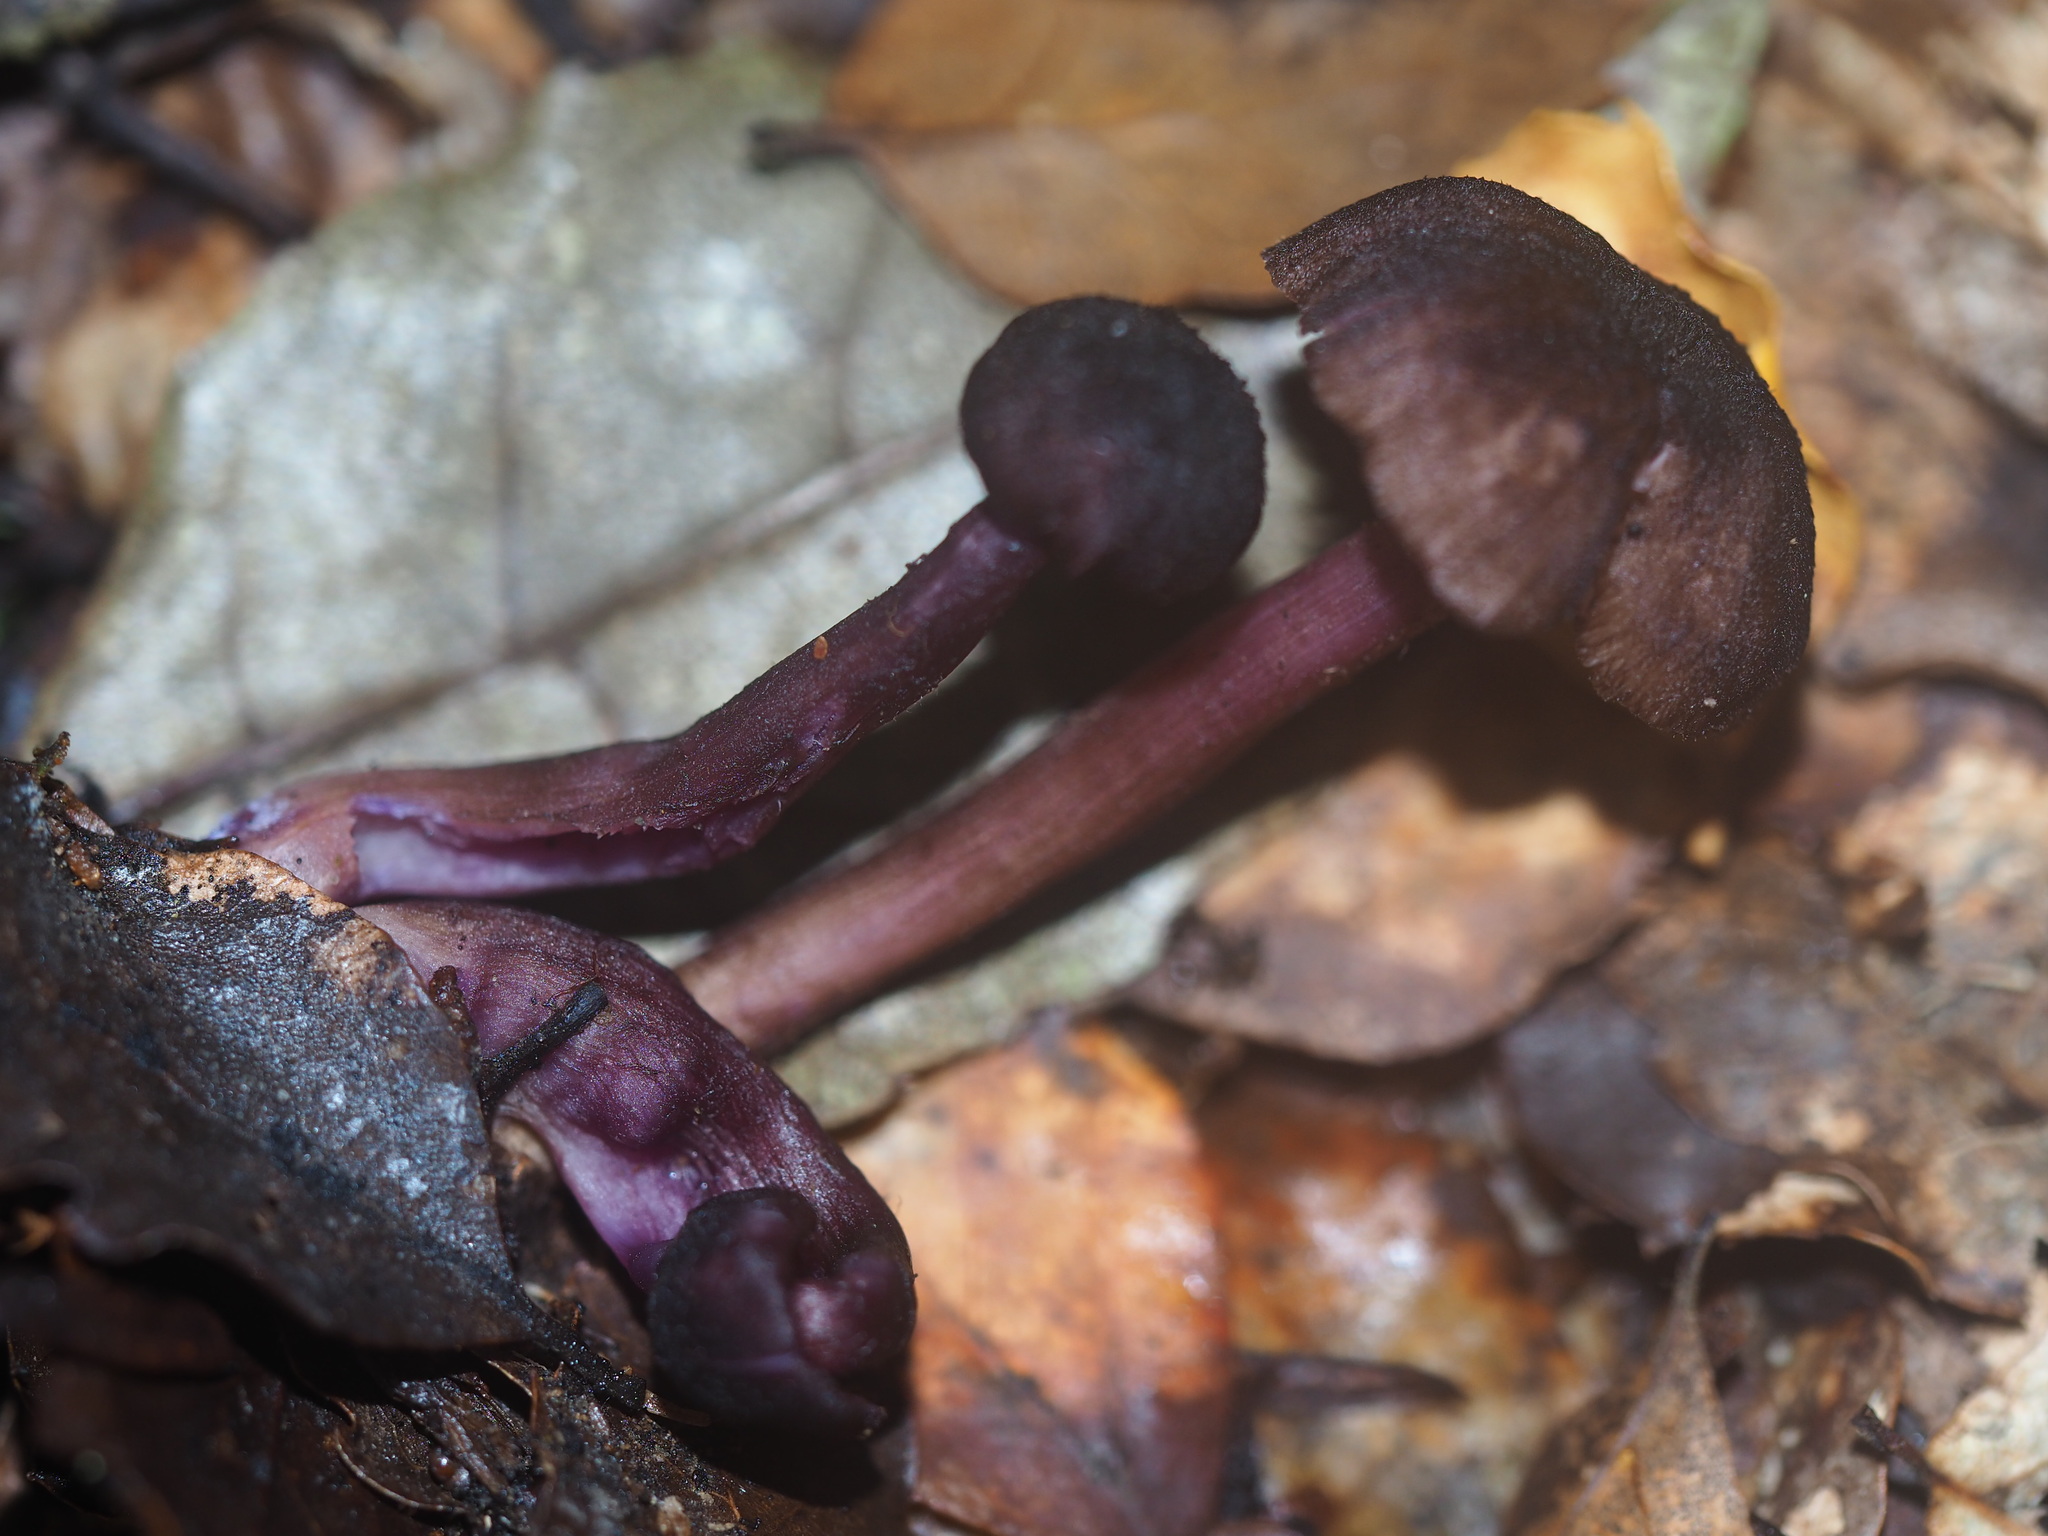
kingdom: Fungi
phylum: Basidiomycota
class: Agaricomycetes
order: Agaricales
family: Hydnangiaceae
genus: Laccaria
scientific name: Laccaria violaceonigra
